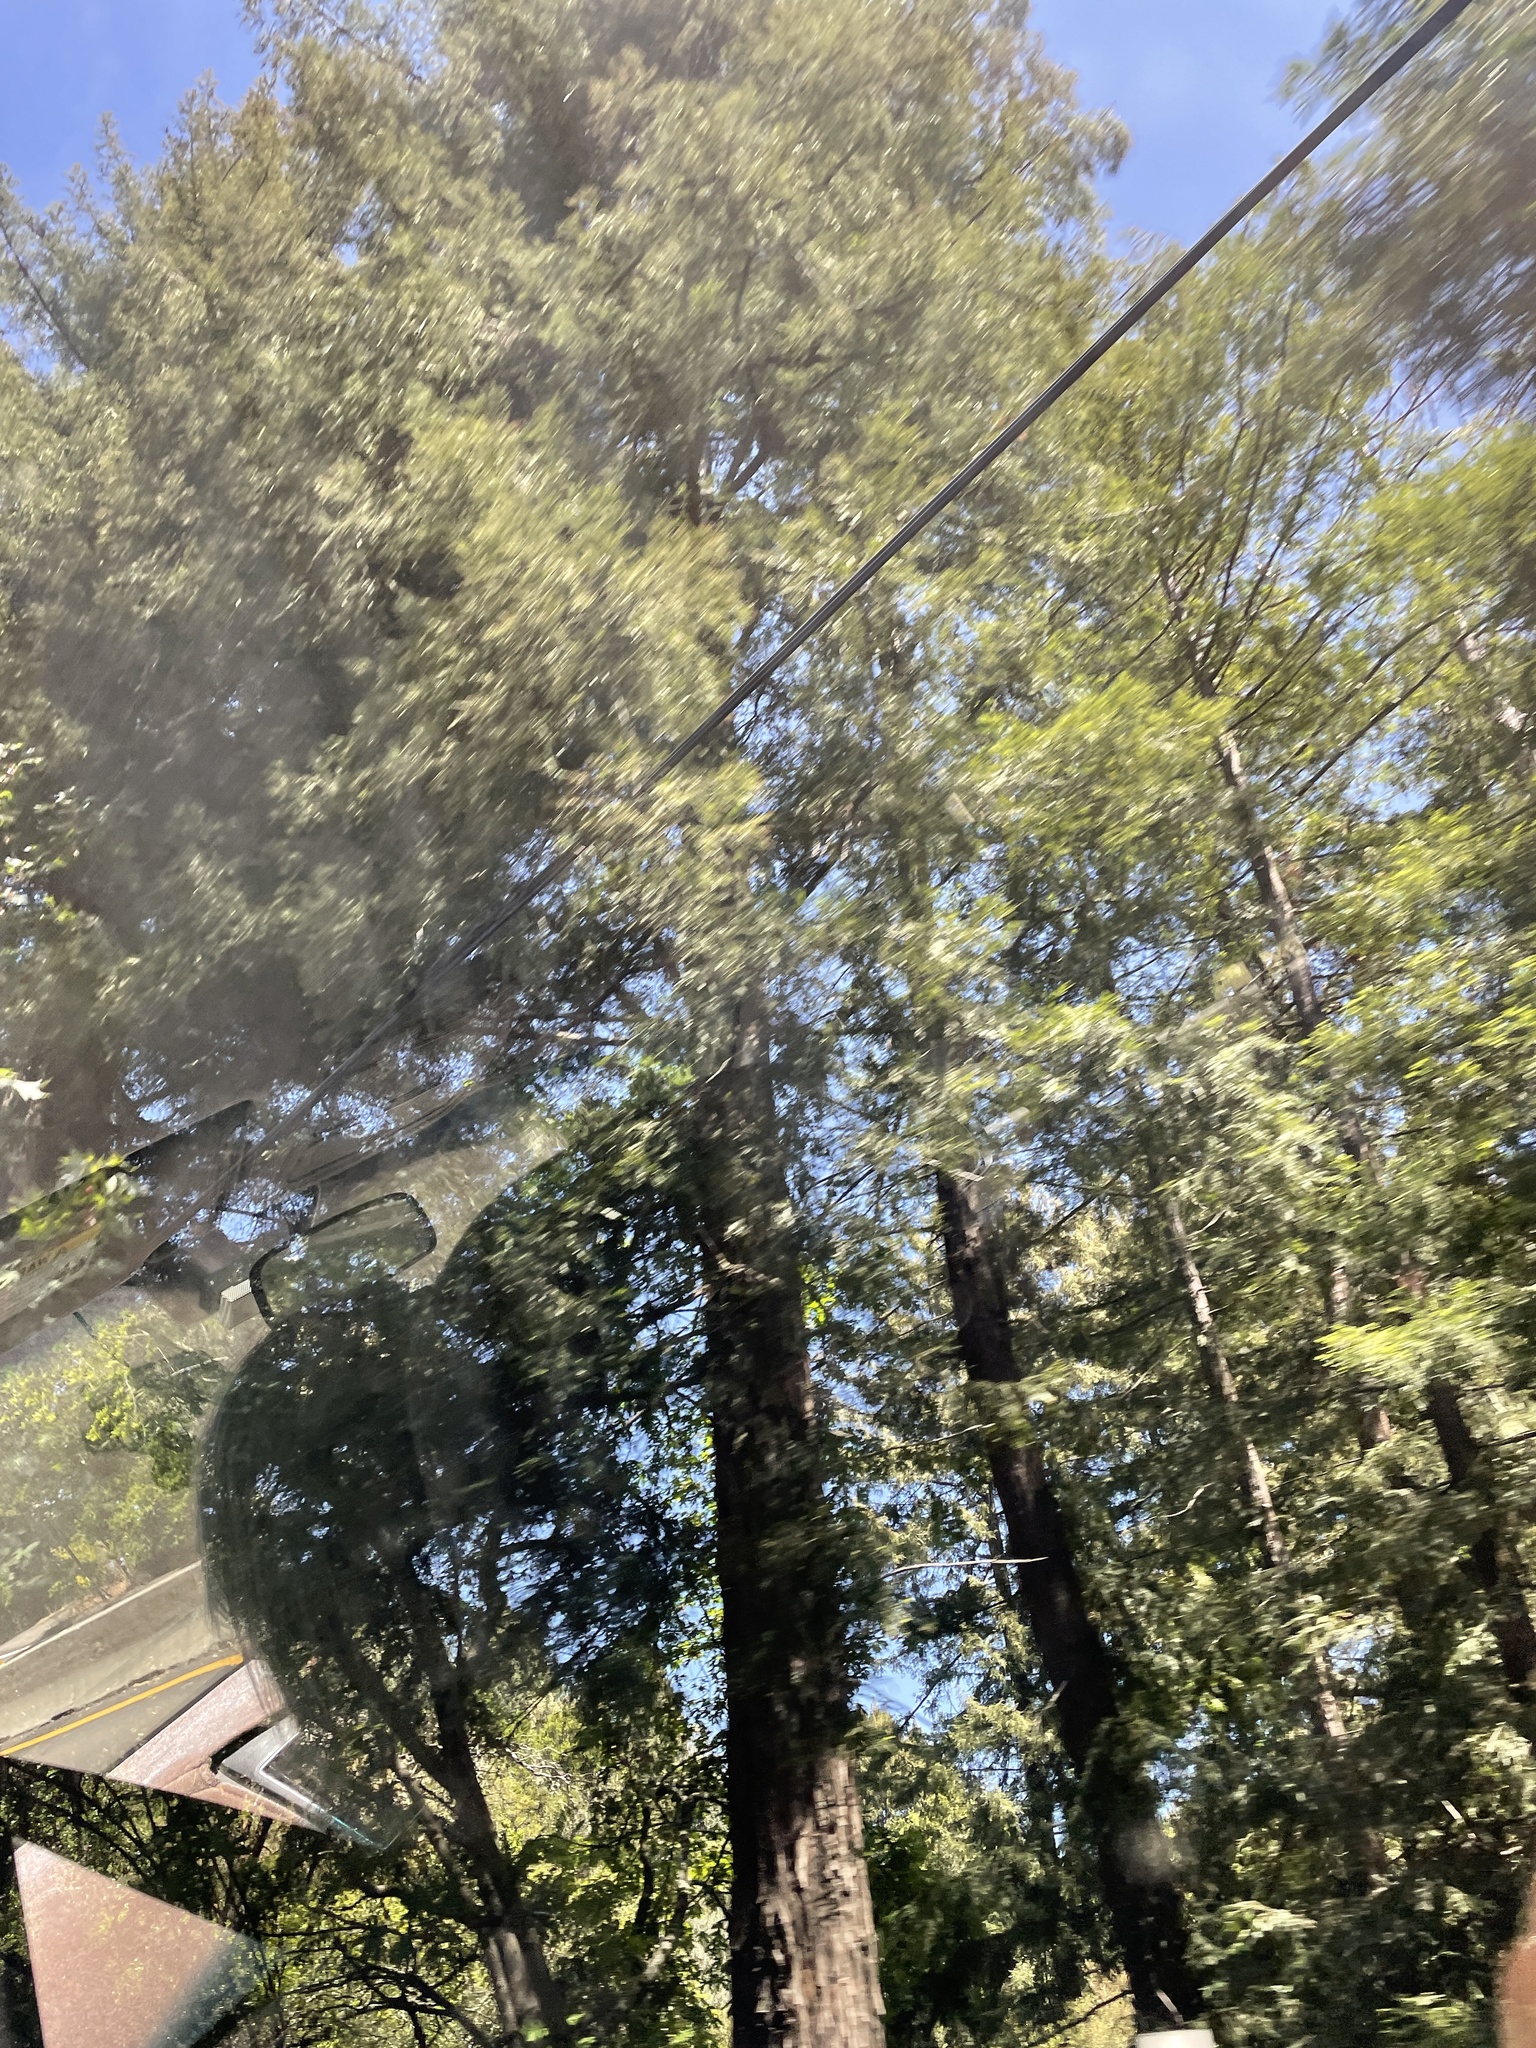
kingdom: Plantae
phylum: Tracheophyta
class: Pinopsida
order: Pinales
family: Cupressaceae
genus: Sequoia
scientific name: Sequoia sempervirens
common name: Coast redwood
